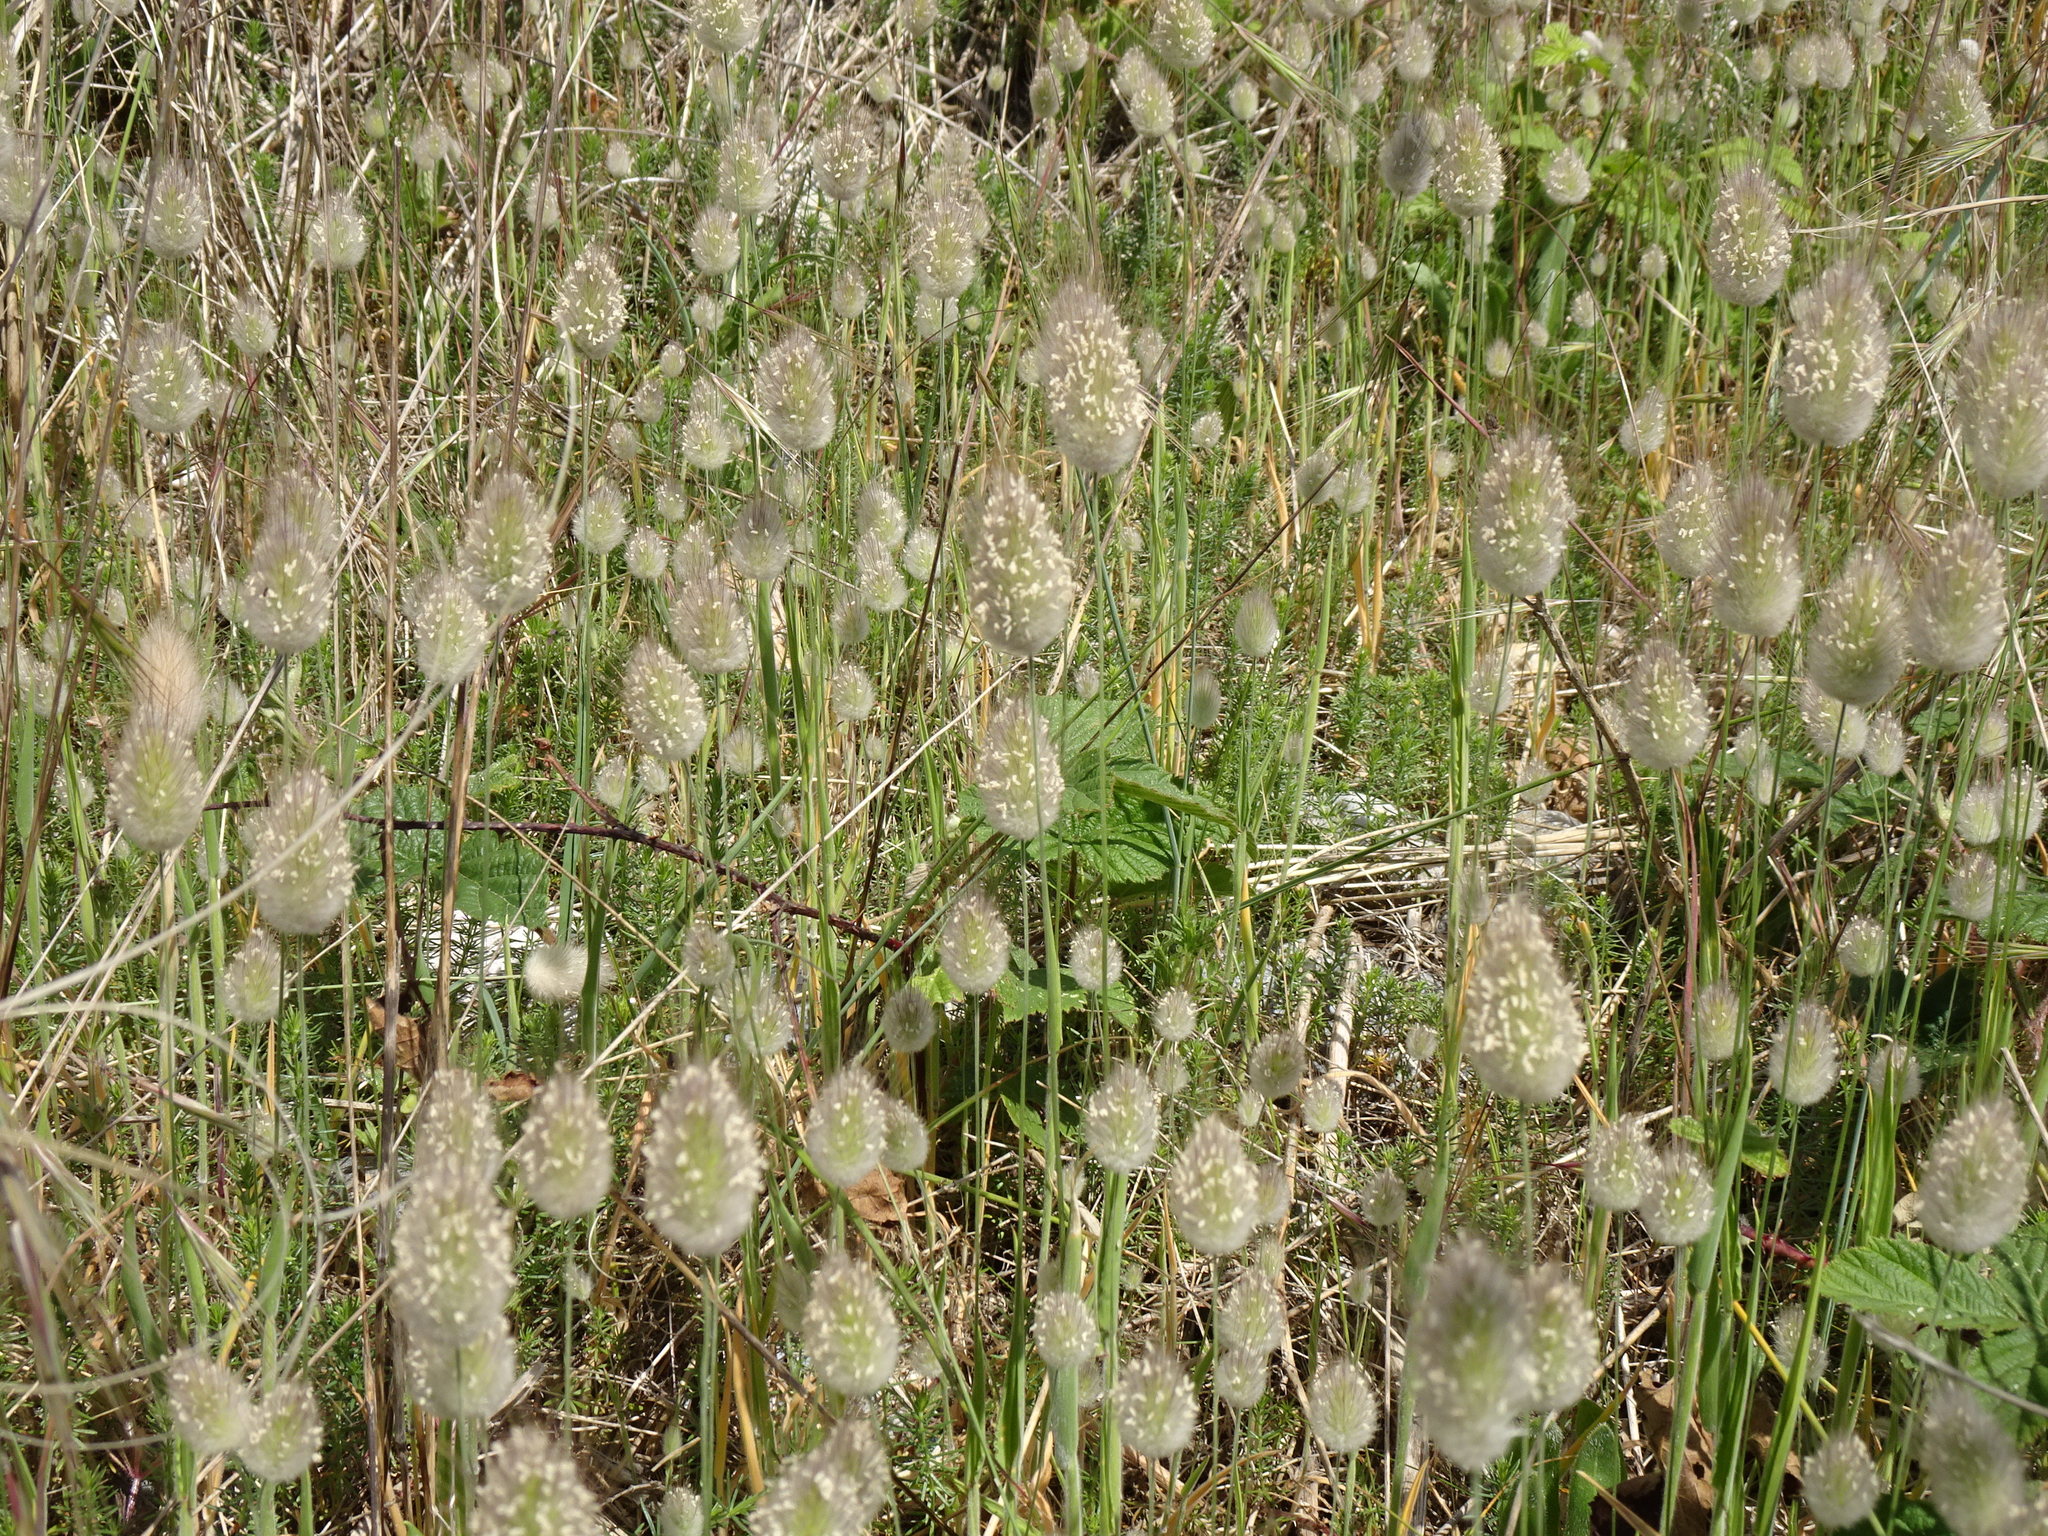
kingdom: Plantae
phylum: Tracheophyta
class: Liliopsida
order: Poales
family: Poaceae
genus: Lagurus
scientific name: Lagurus ovatus
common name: Hare's-tail
